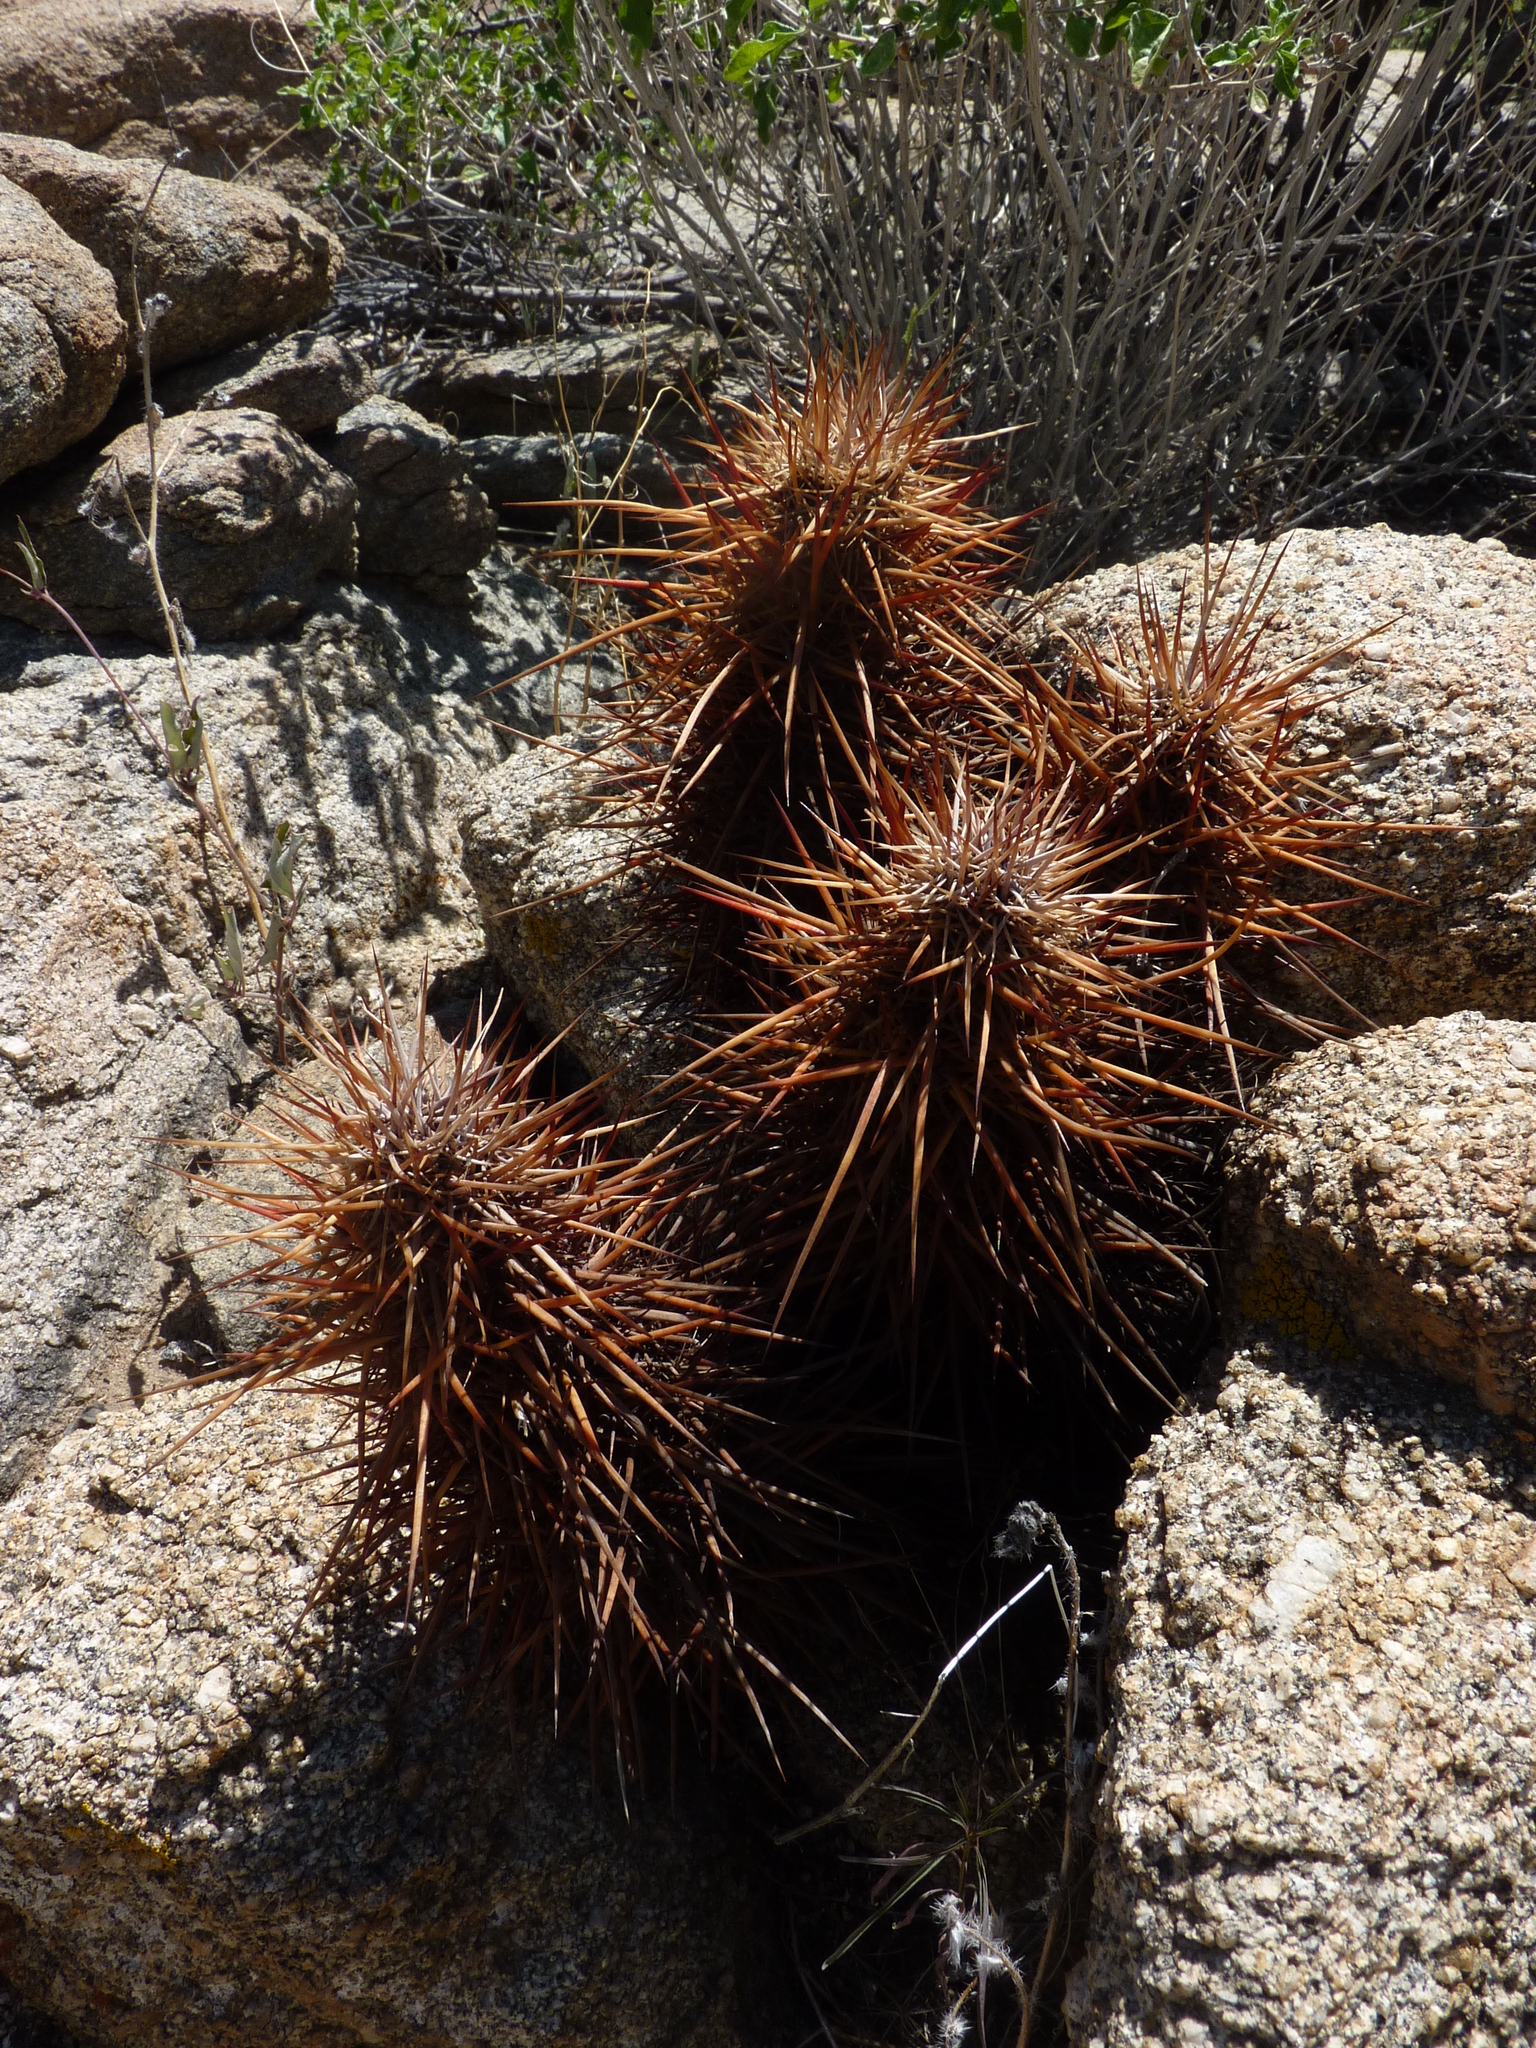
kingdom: Plantae
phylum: Tracheophyta
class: Magnoliopsida
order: Caryophyllales
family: Cactaceae
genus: Echinocereus
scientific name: Echinocereus engelmannii
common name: Engelmann's hedgehog cactus
